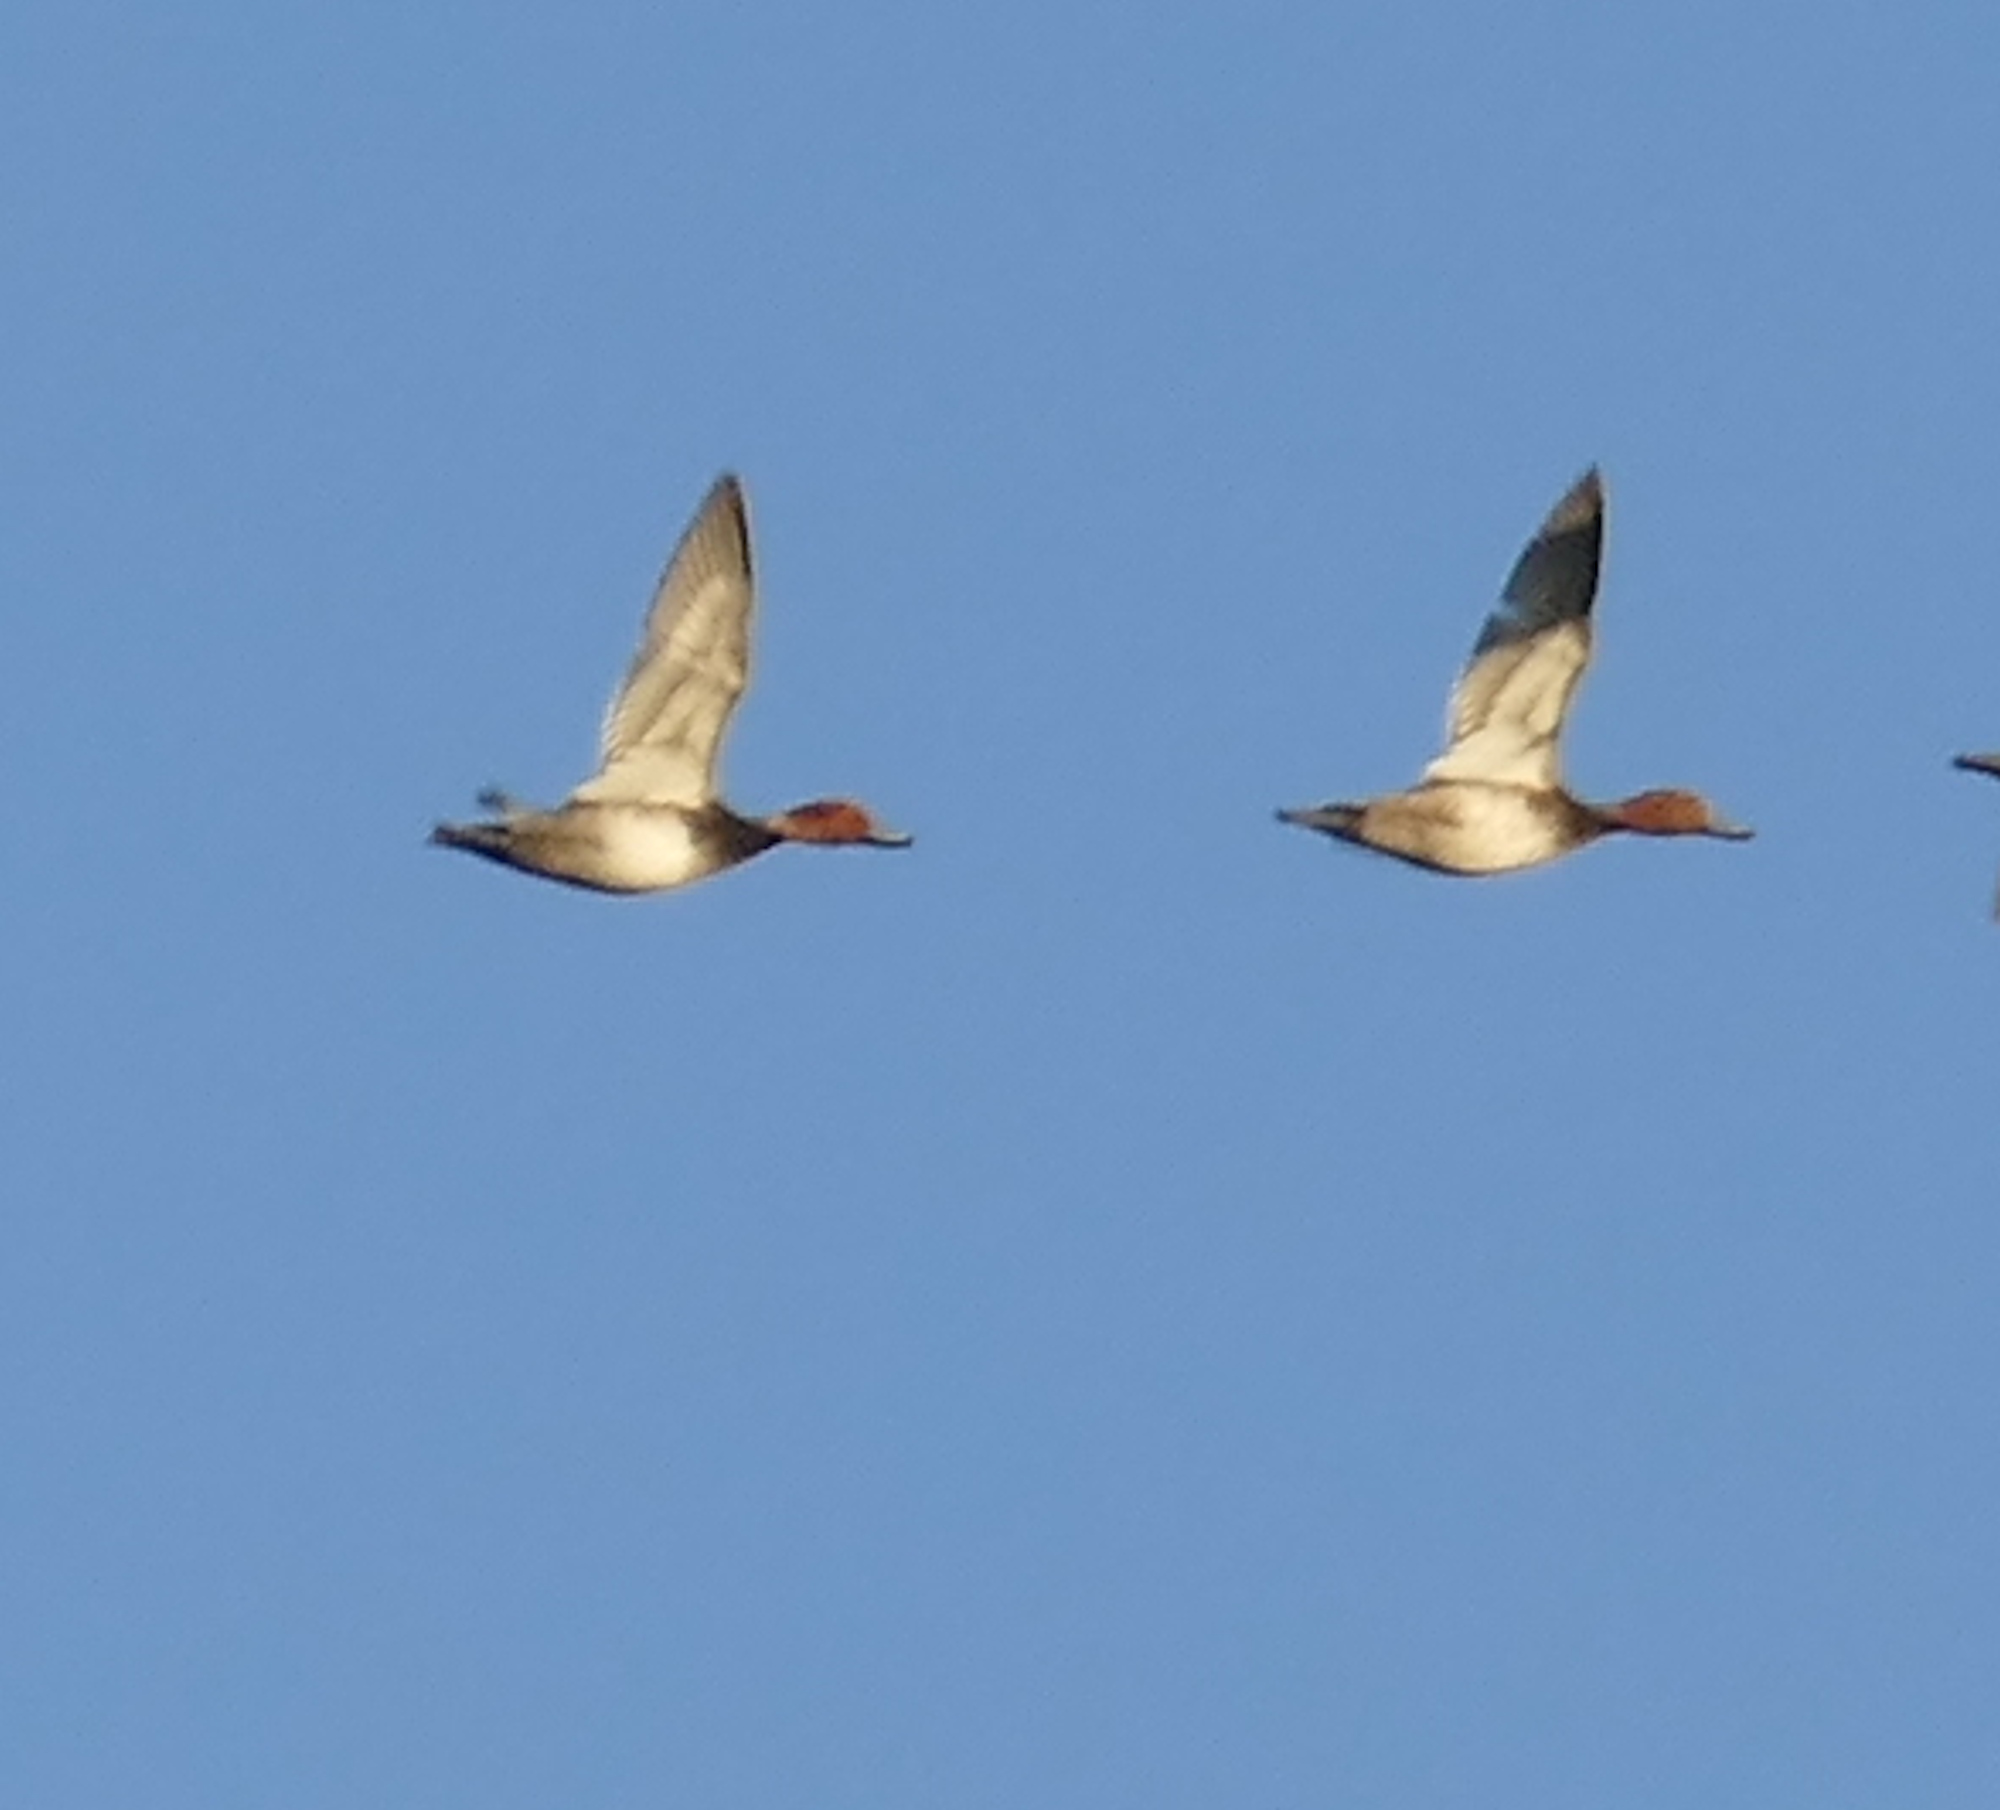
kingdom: Animalia
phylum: Chordata
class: Aves
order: Anseriformes
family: Anatidae
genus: Aythya
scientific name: Aythya americana
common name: Redhead
